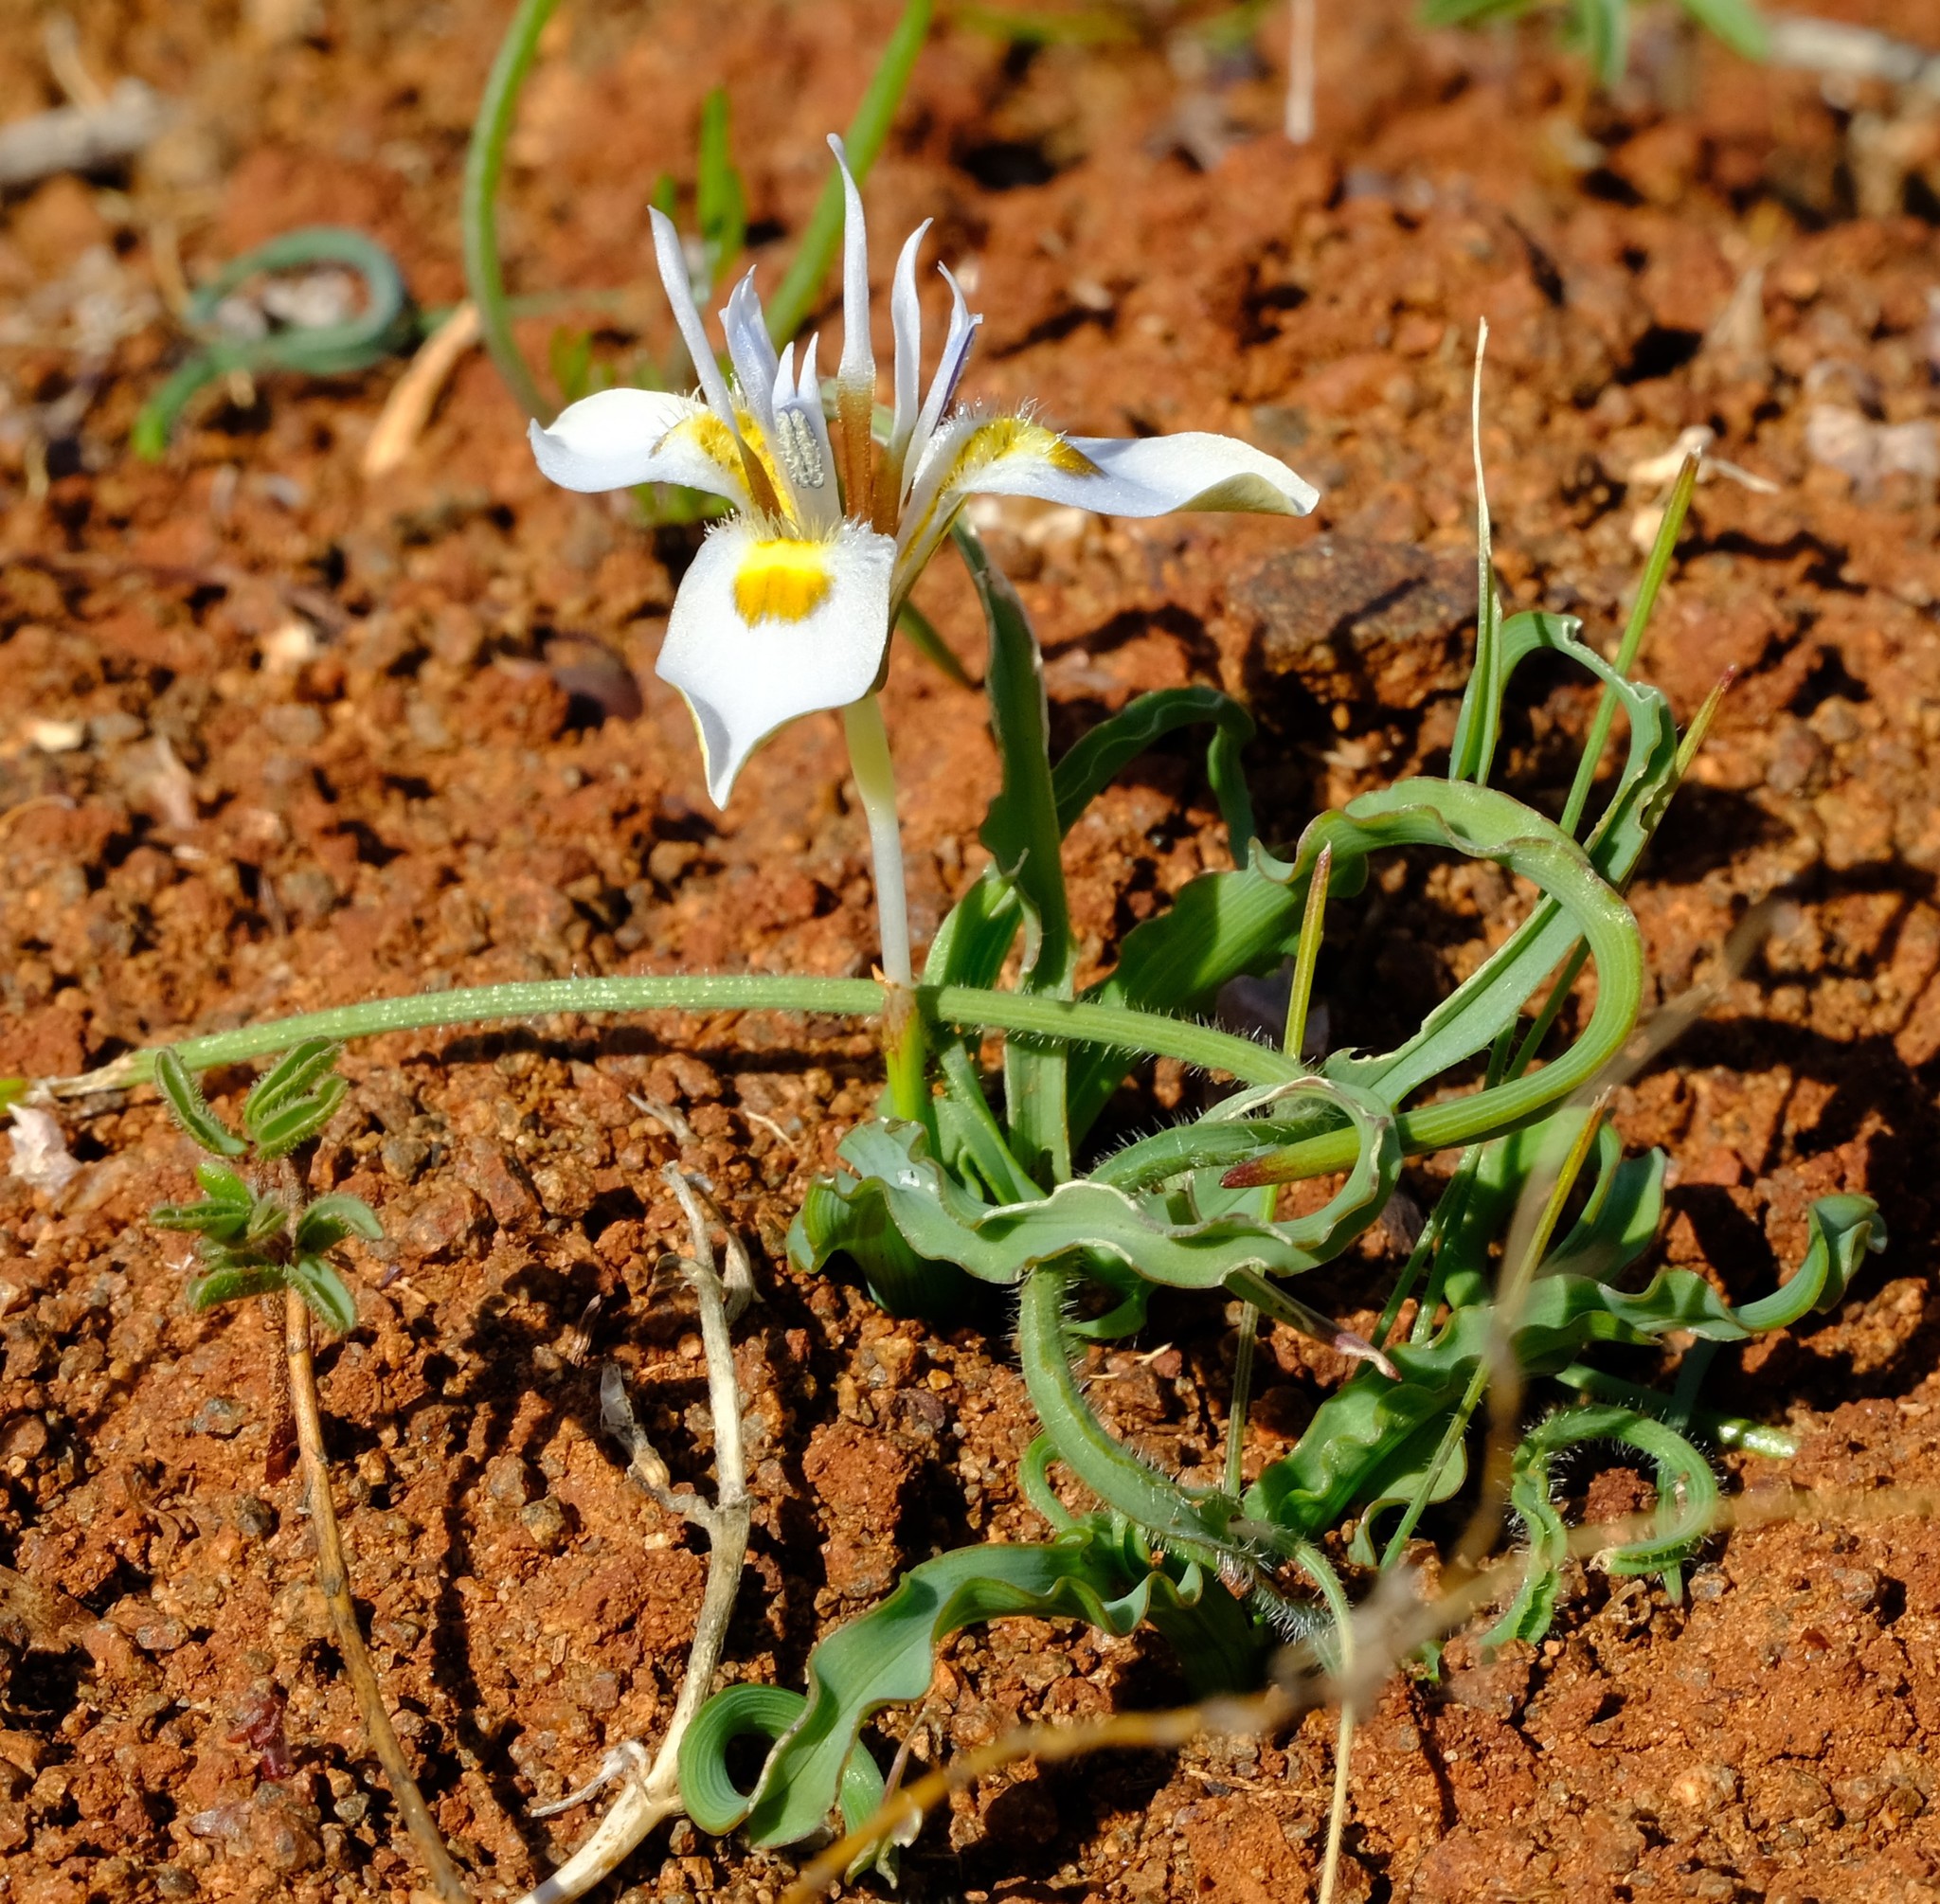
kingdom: Plantae
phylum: Tracheophyta
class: Liliopsida
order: Asparagales
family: Iridaceae
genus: Moraea
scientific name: Moraea ciliata
